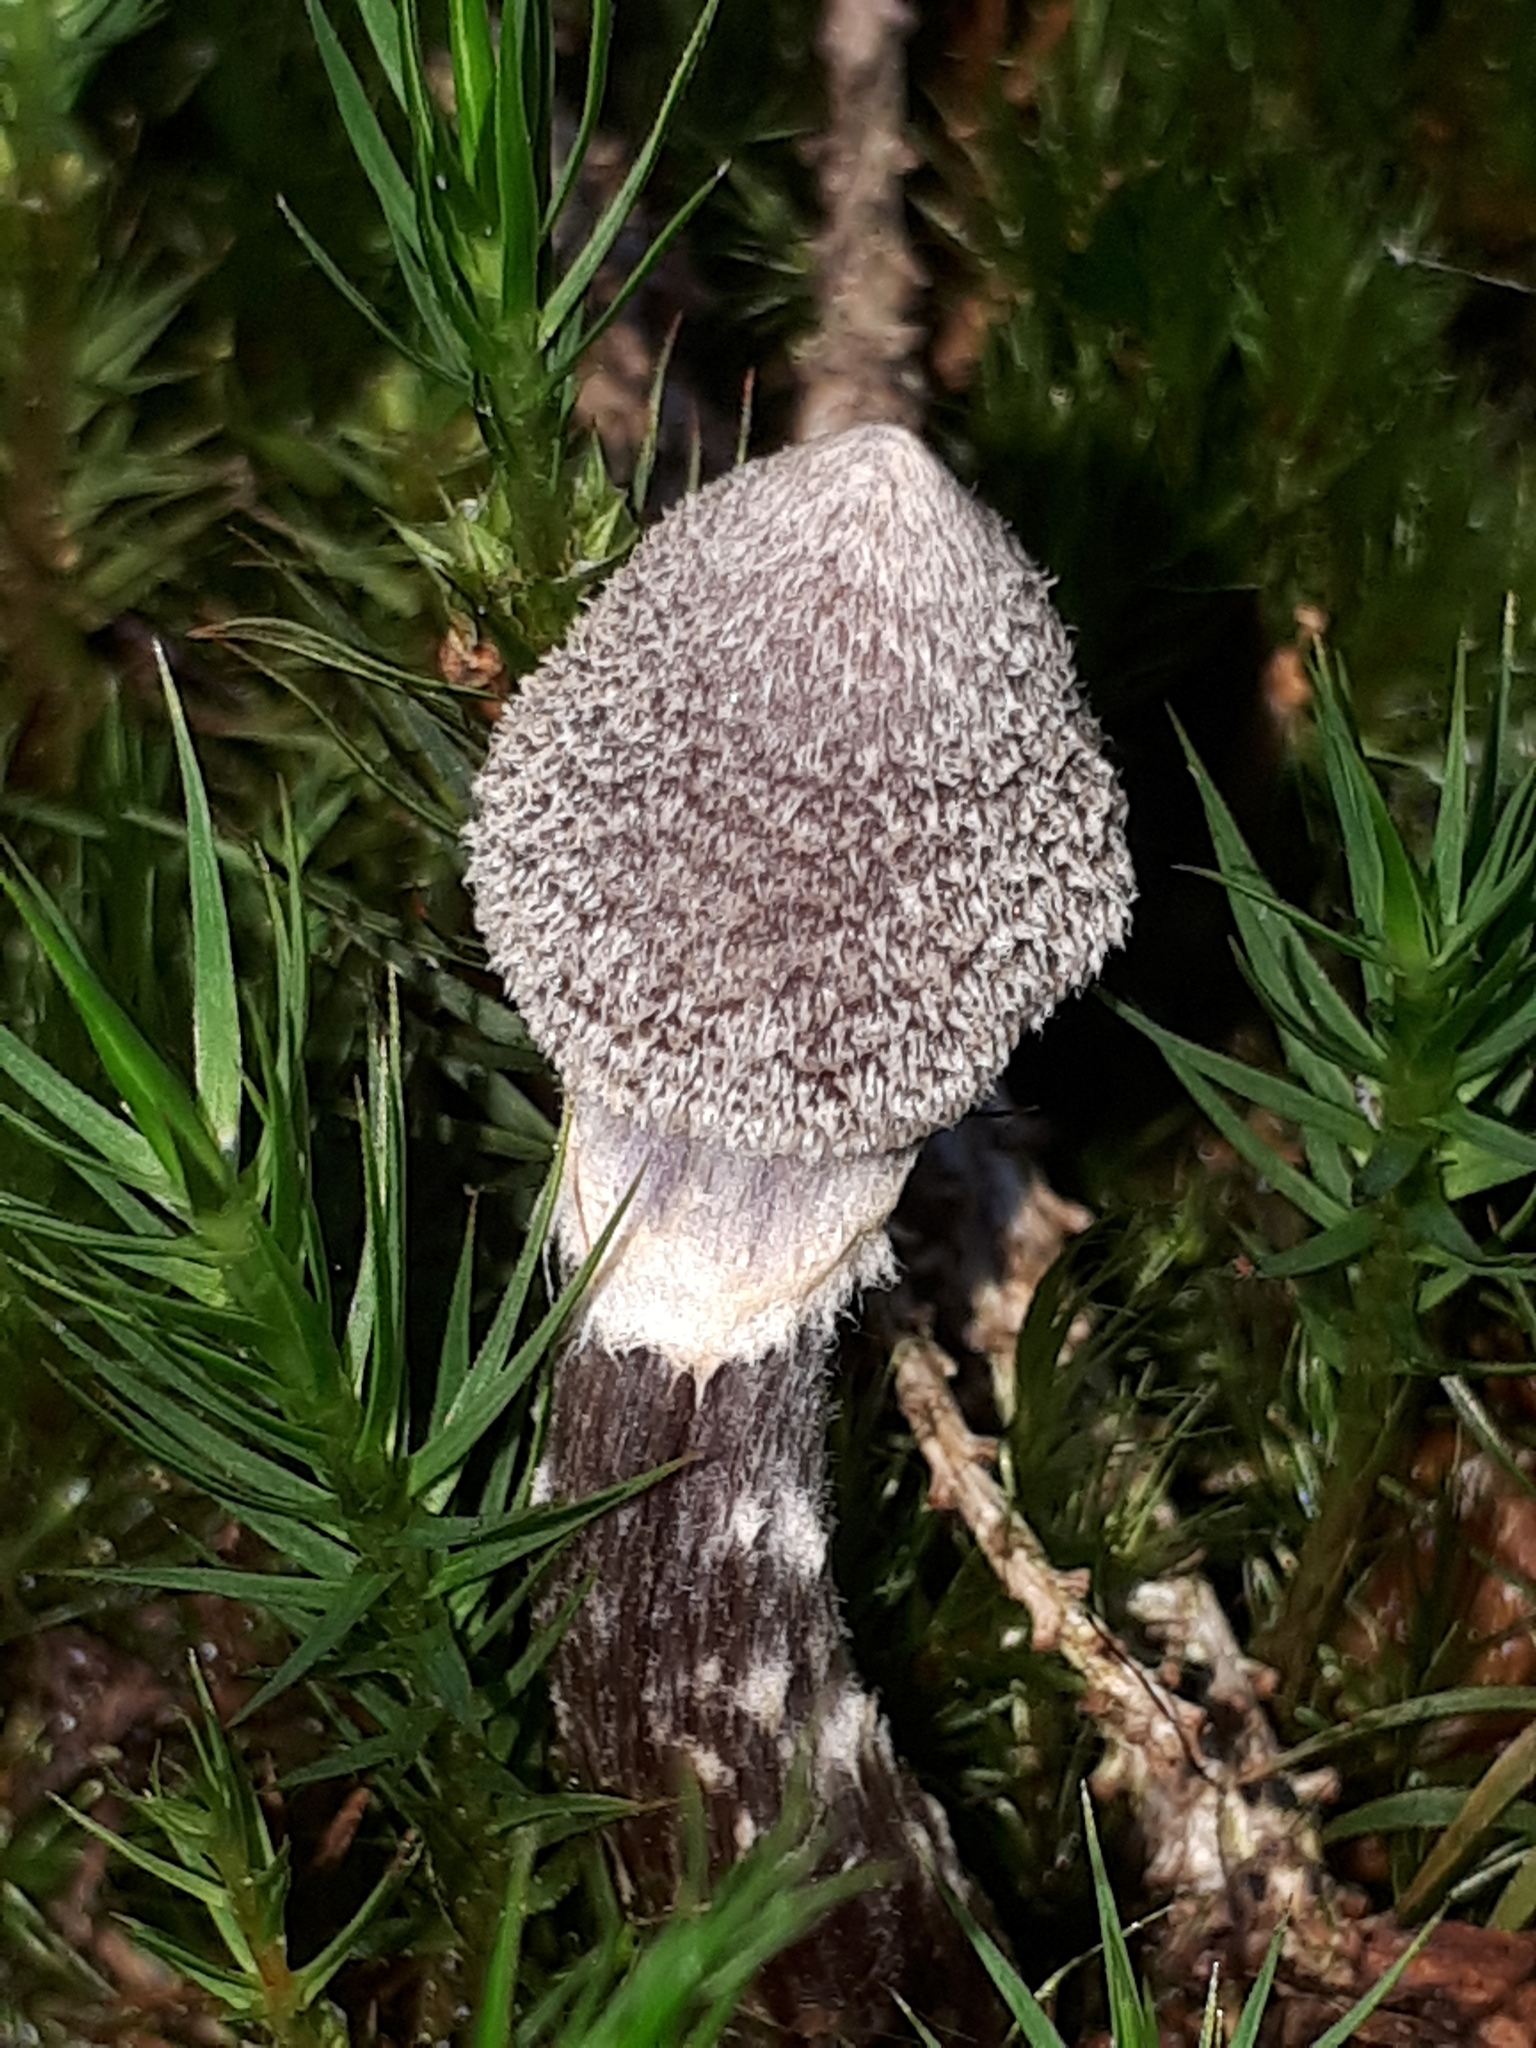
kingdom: Fungi
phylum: Basidiomycota
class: Agaricomycetes
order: Agaricales
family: Cortinariaceae
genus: Cortinarius
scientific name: Cortinarius flexipes
